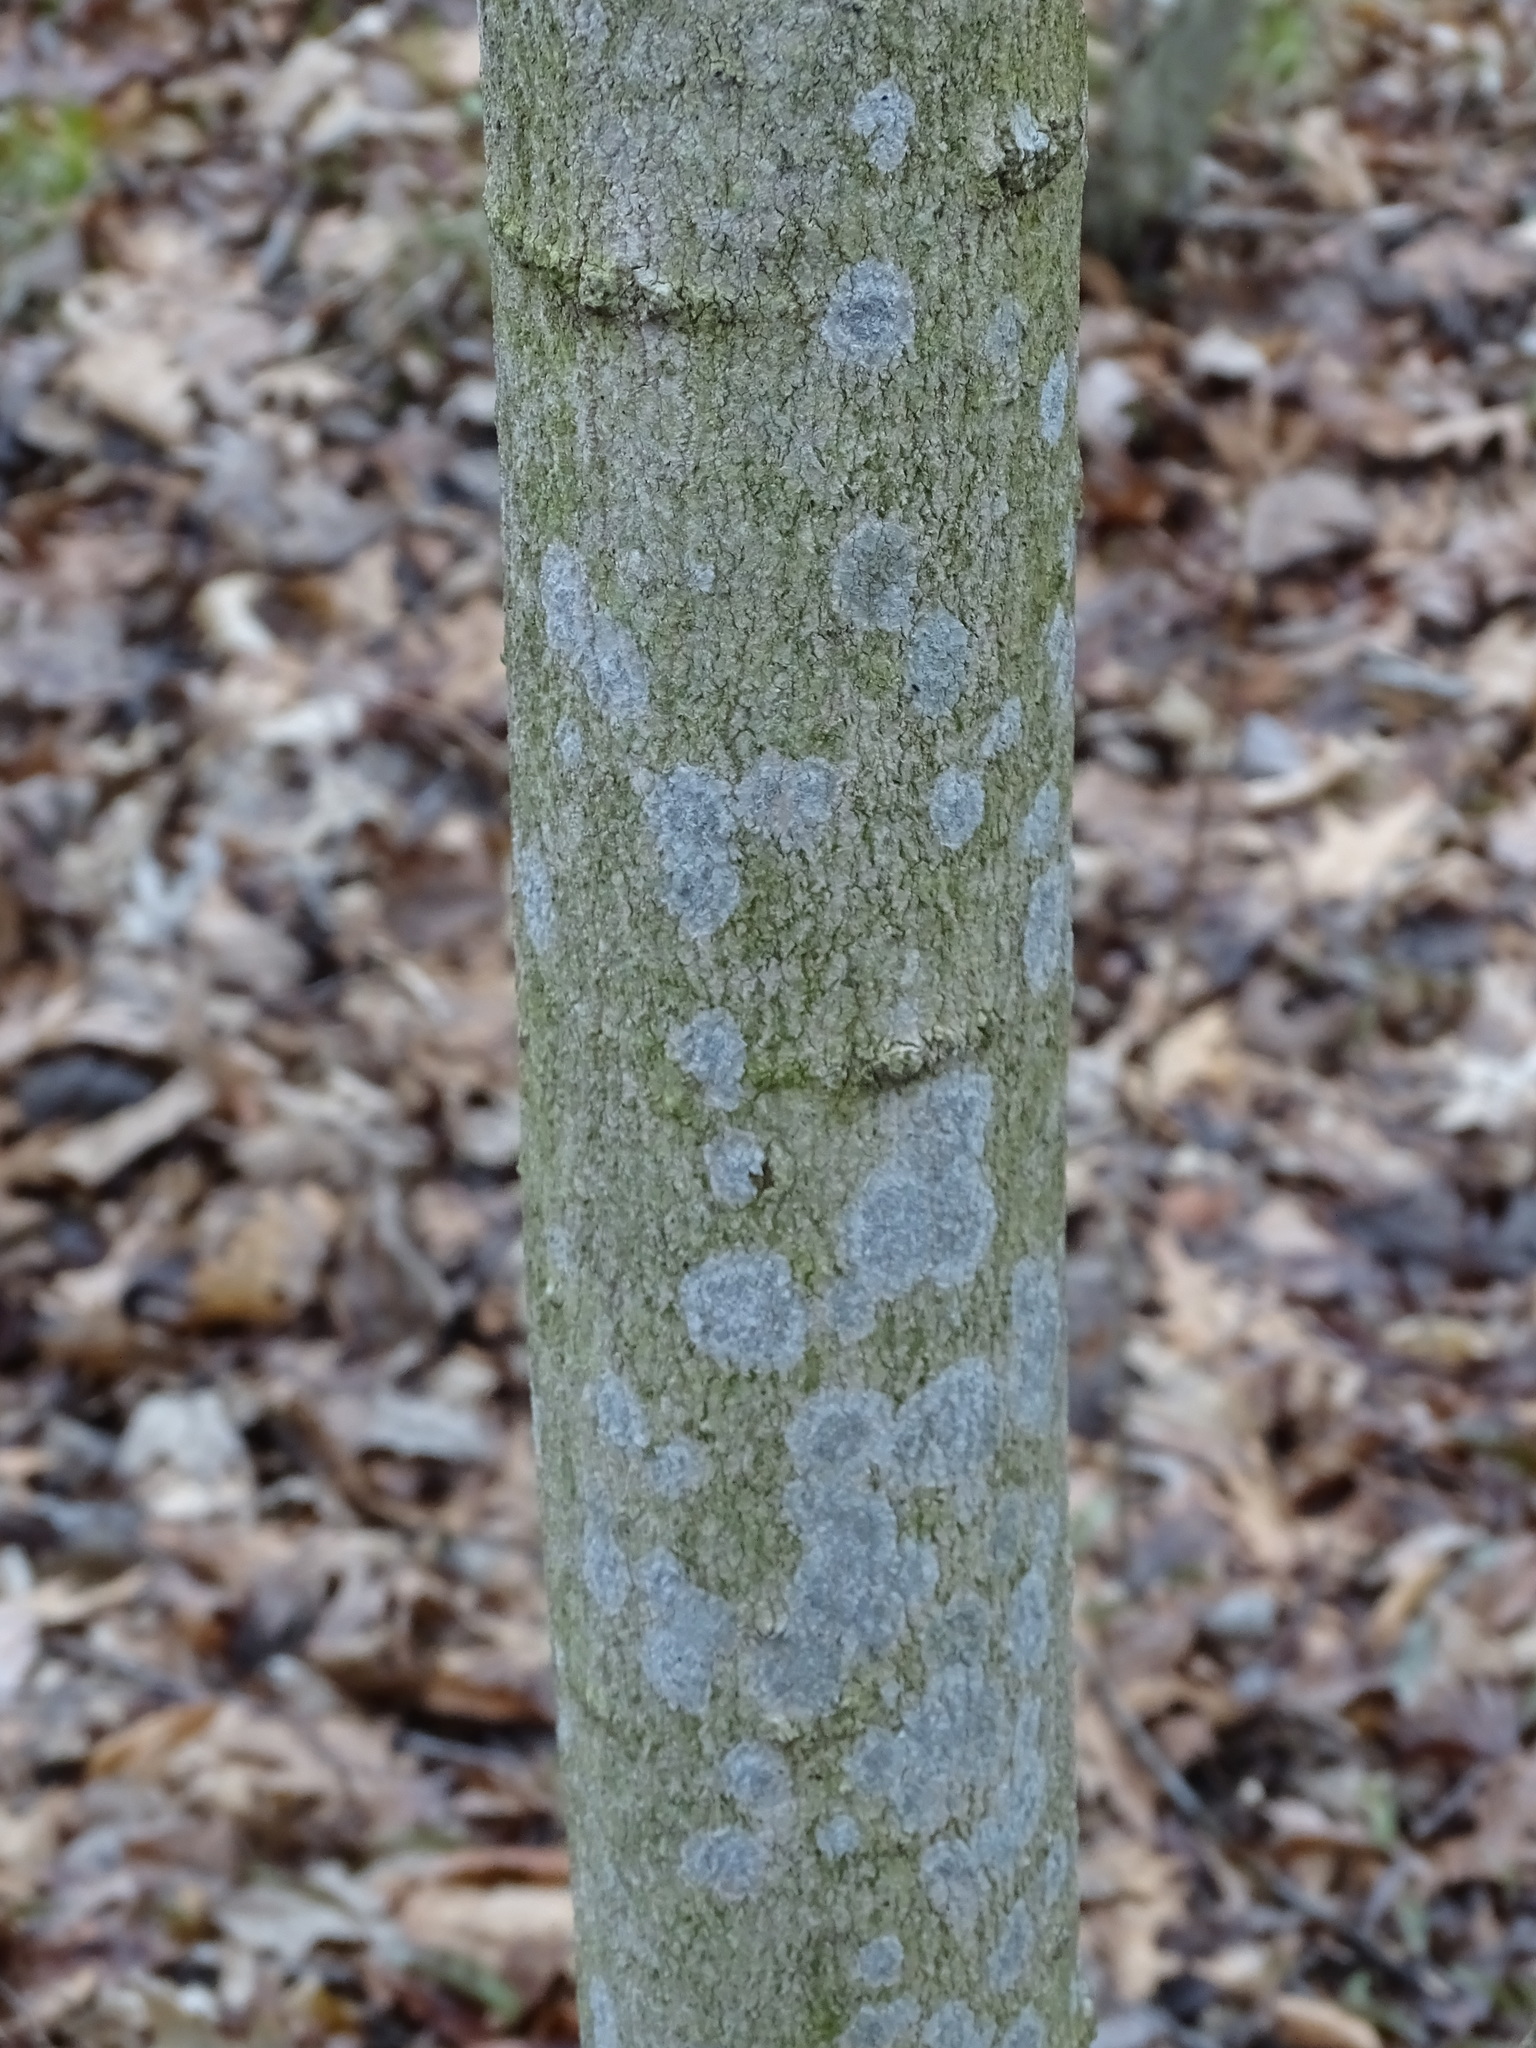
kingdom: Plantae
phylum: Tracheophyta
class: Magnoliopsida
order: Fagales
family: Fagaceae
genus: Fagus
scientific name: Fagus grandifolia
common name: American beech
